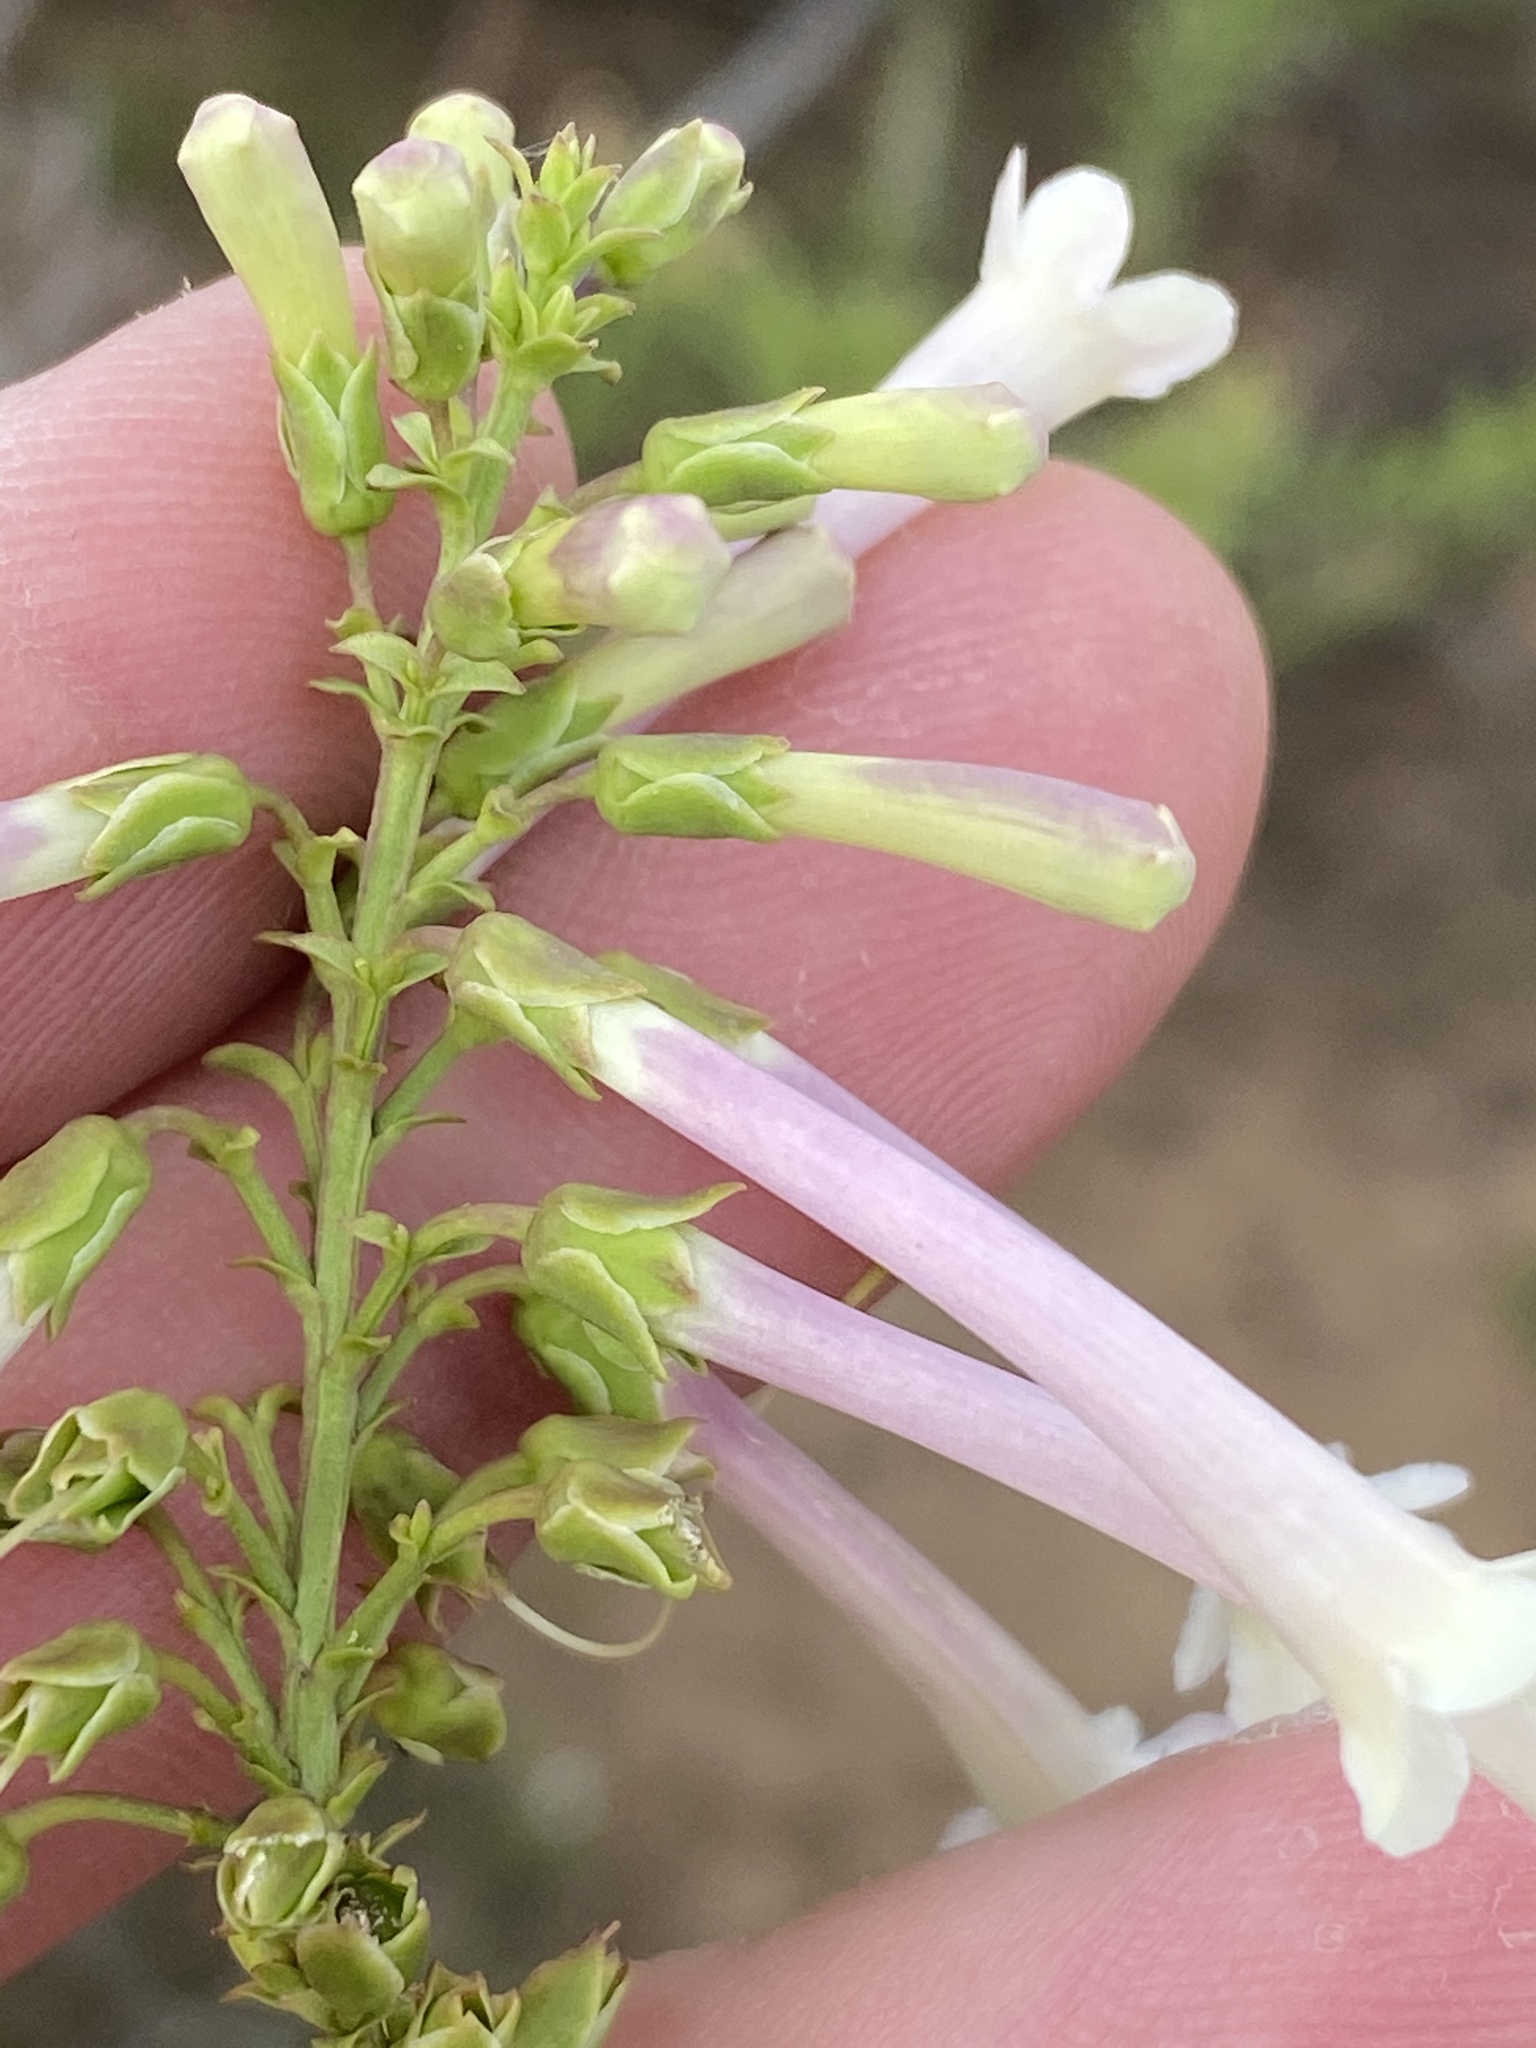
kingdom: Plantae
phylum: Tracheophyta
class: Magnoliopsida
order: Lamiales
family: Scrophulariaceae
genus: Freylinia
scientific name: Freylinia helmei
